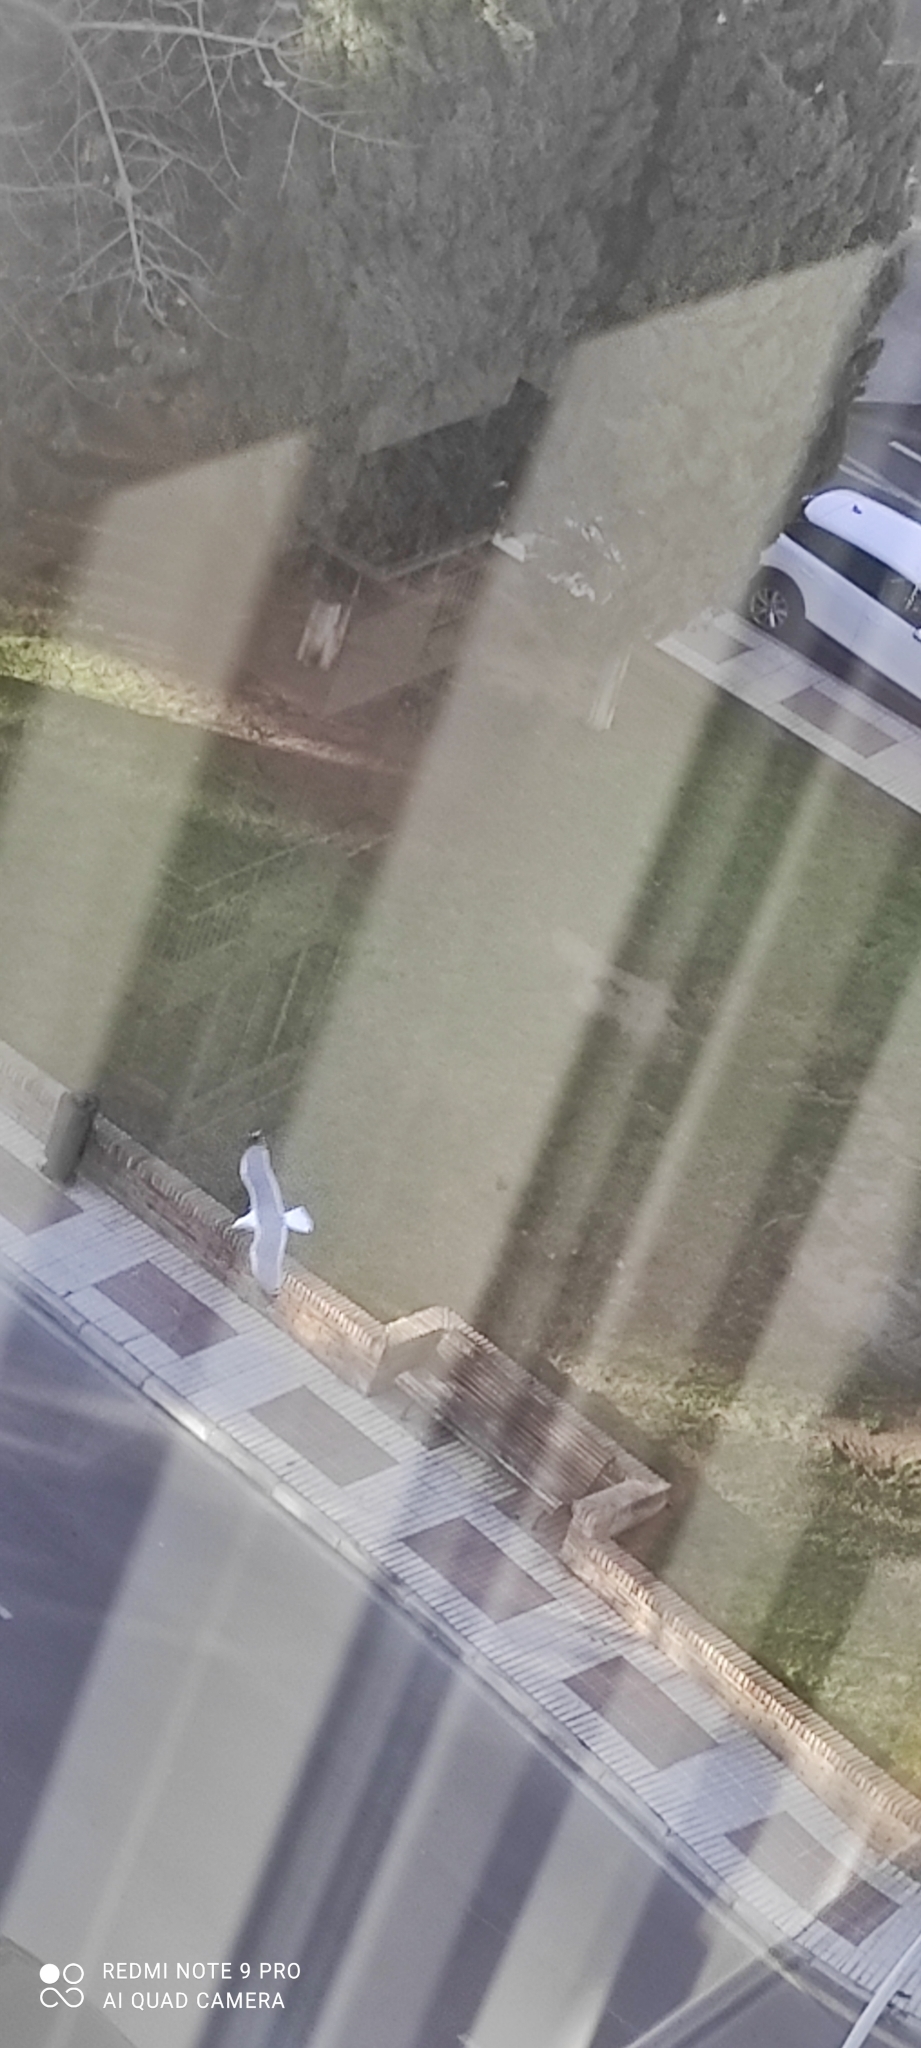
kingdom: Animalia
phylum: Chordata
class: Aves
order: Charadriiformes
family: Laridae
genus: Larus
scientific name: Larus michahellis
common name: Yellow-legged gull
